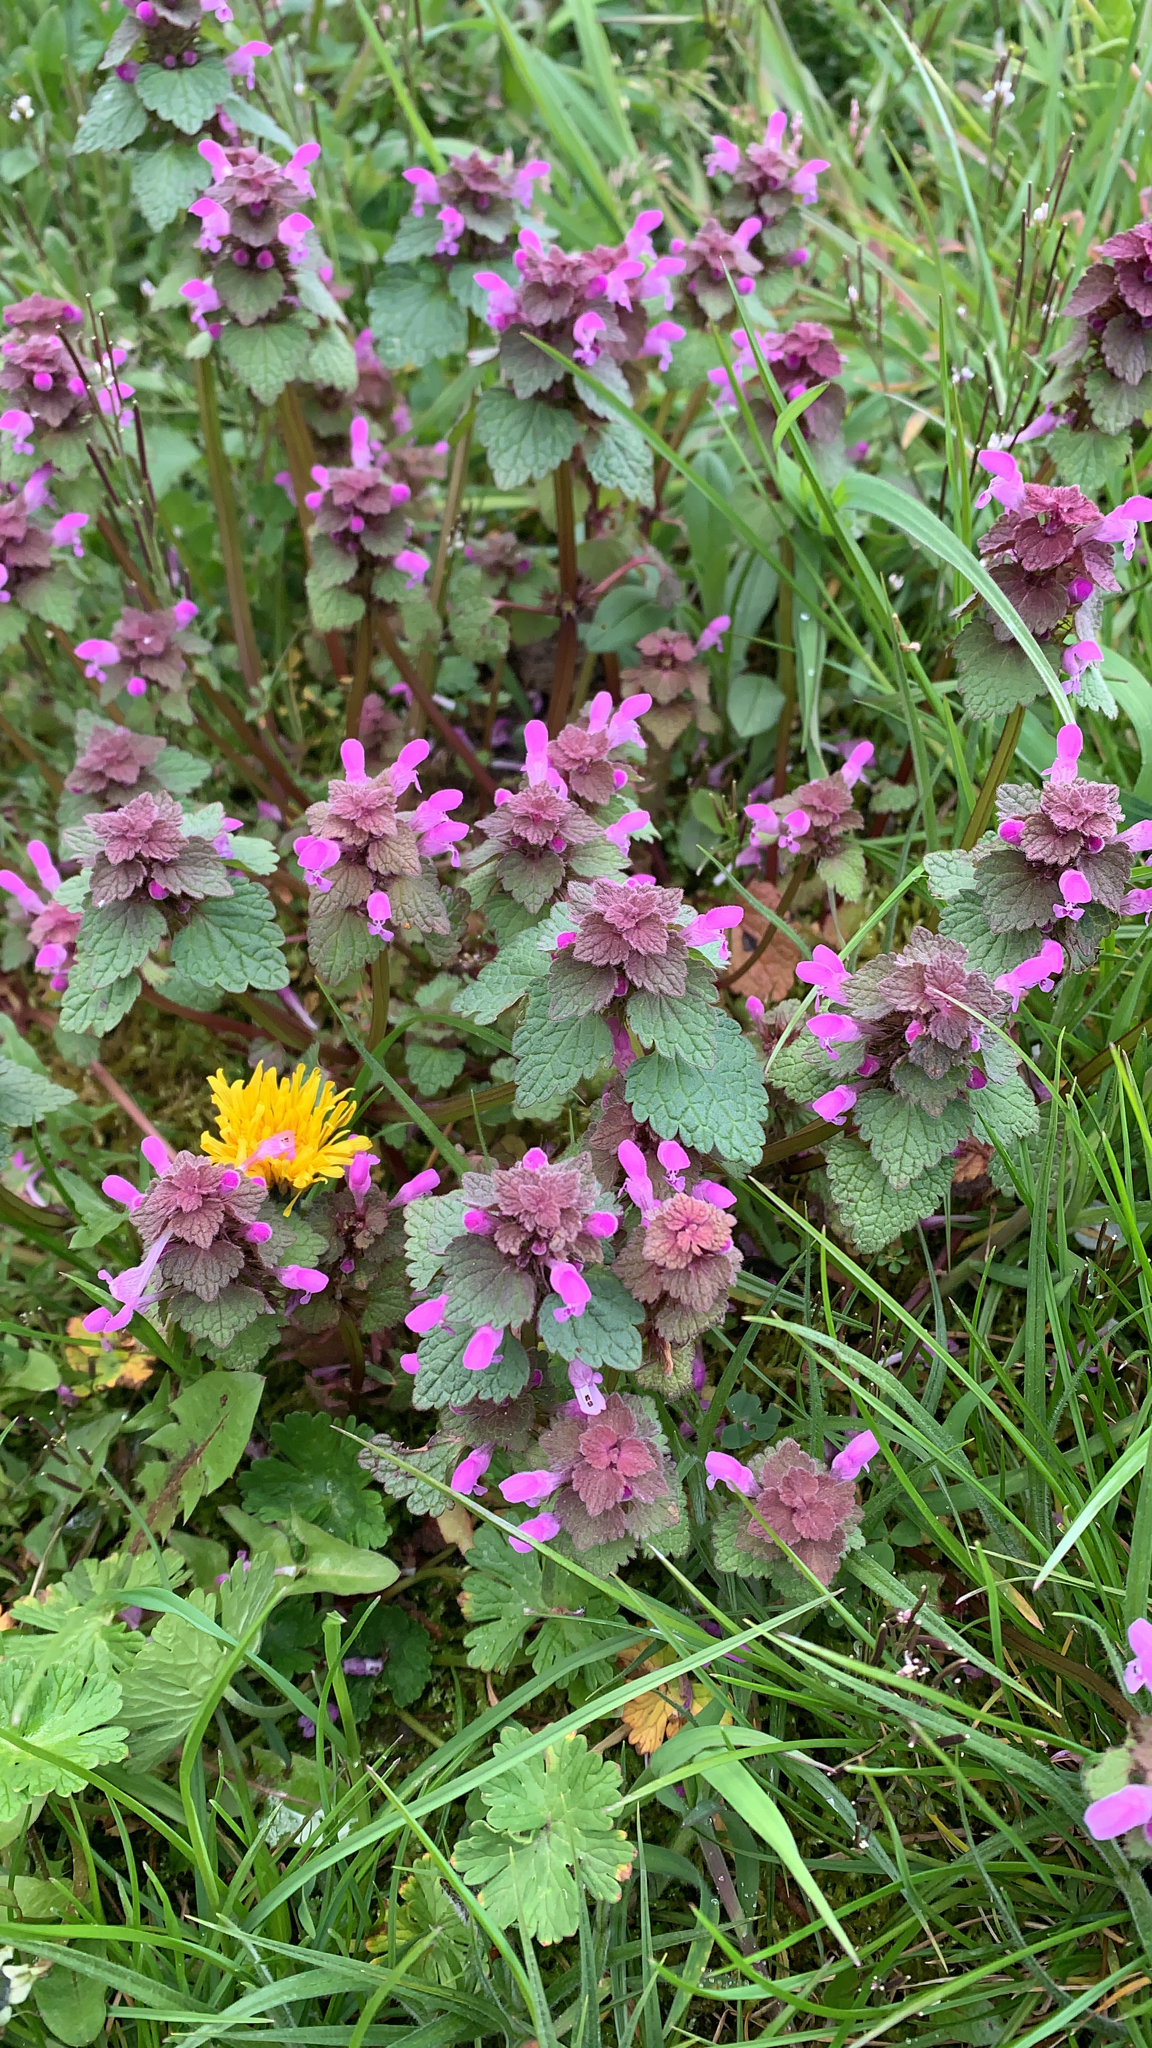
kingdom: Plantae
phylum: Tracheophyta
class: Magnoliopsida
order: Lamiales
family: Lamiaceae
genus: Lamium
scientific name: Lamium purpureum
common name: Red dead-nettle
